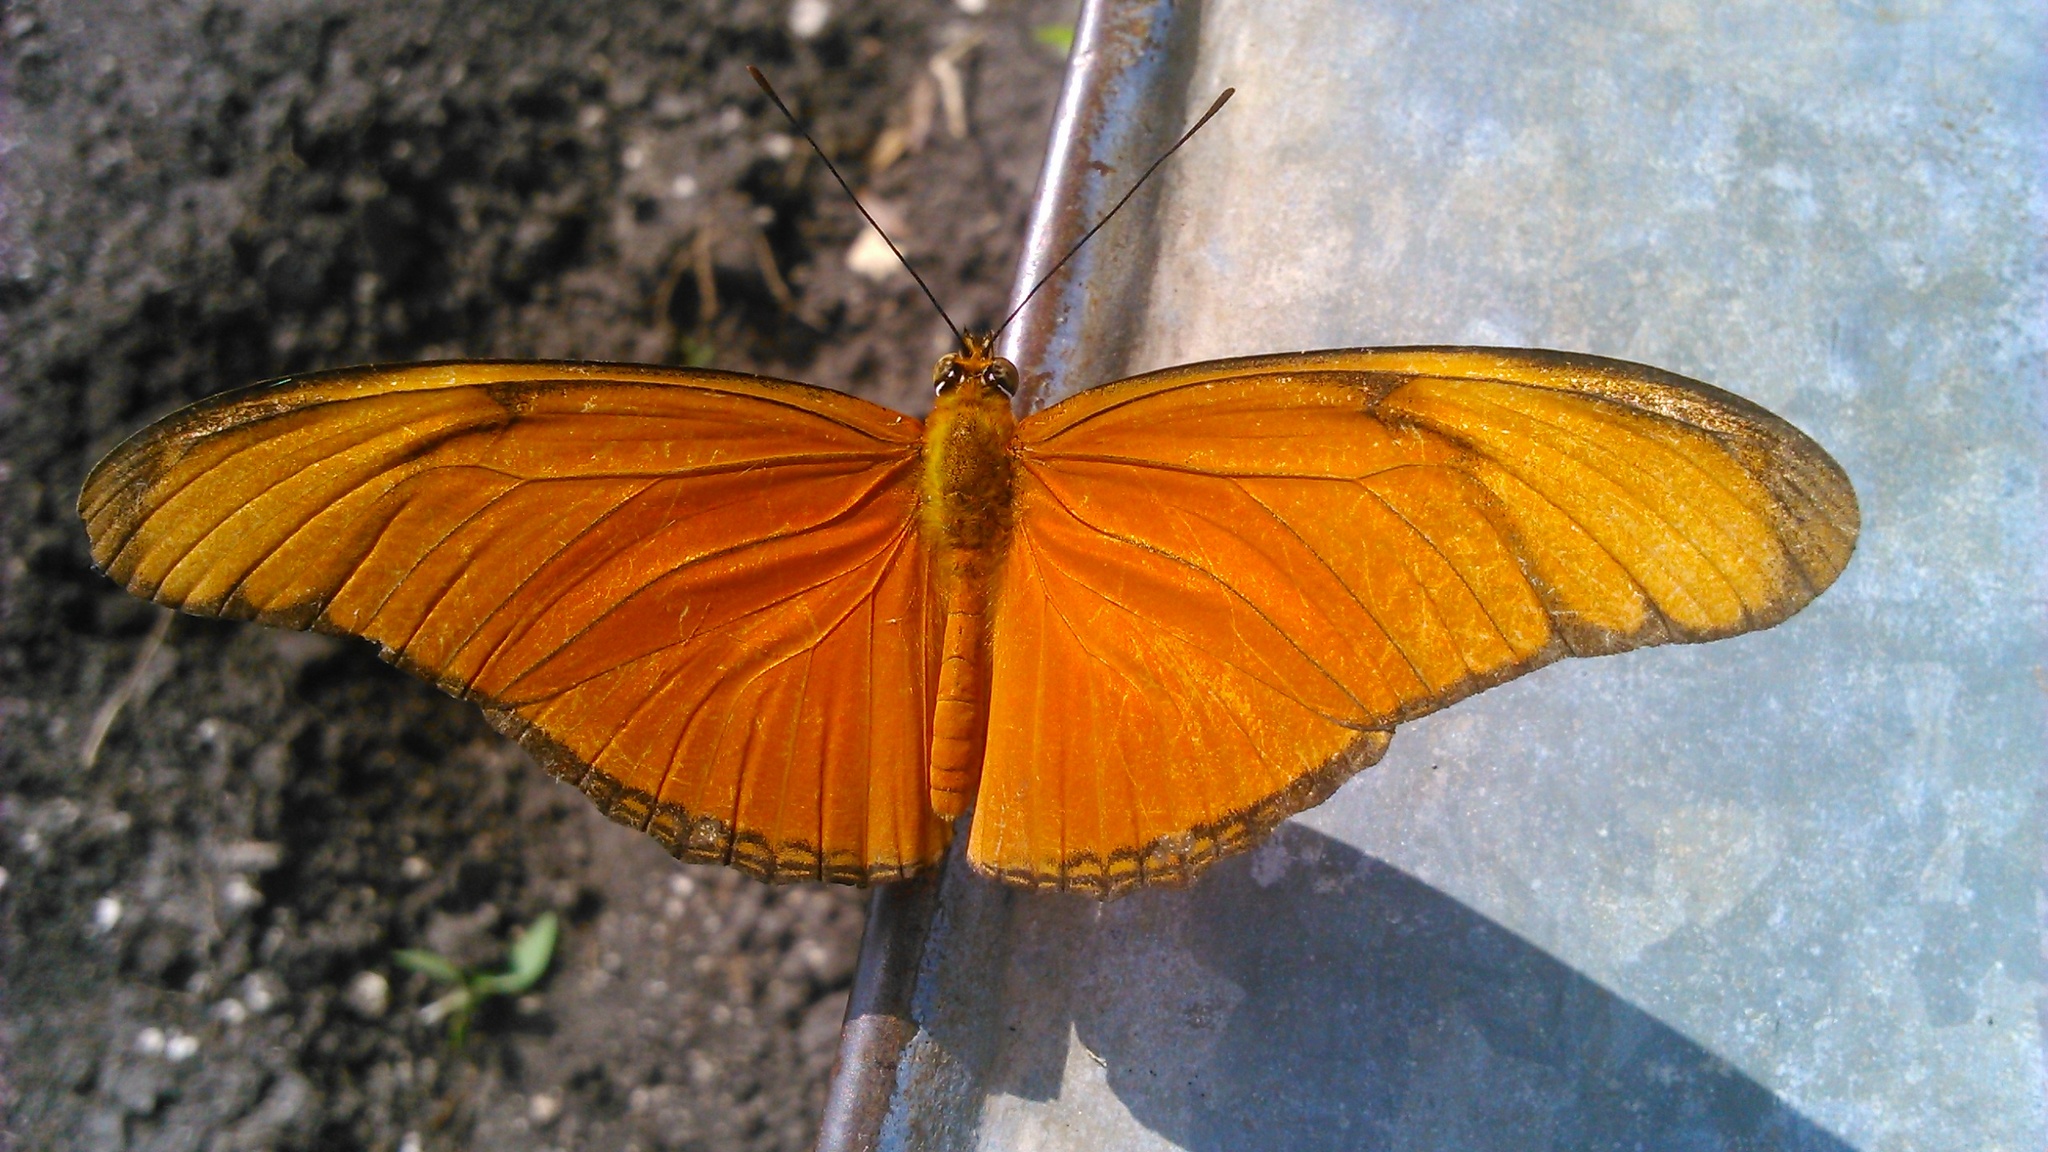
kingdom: Animalia
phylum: Arthropoda
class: Insecta
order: Lepidoptera
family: Nymphalidae
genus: Dryas
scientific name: Dryas iulia
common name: Flambeau
